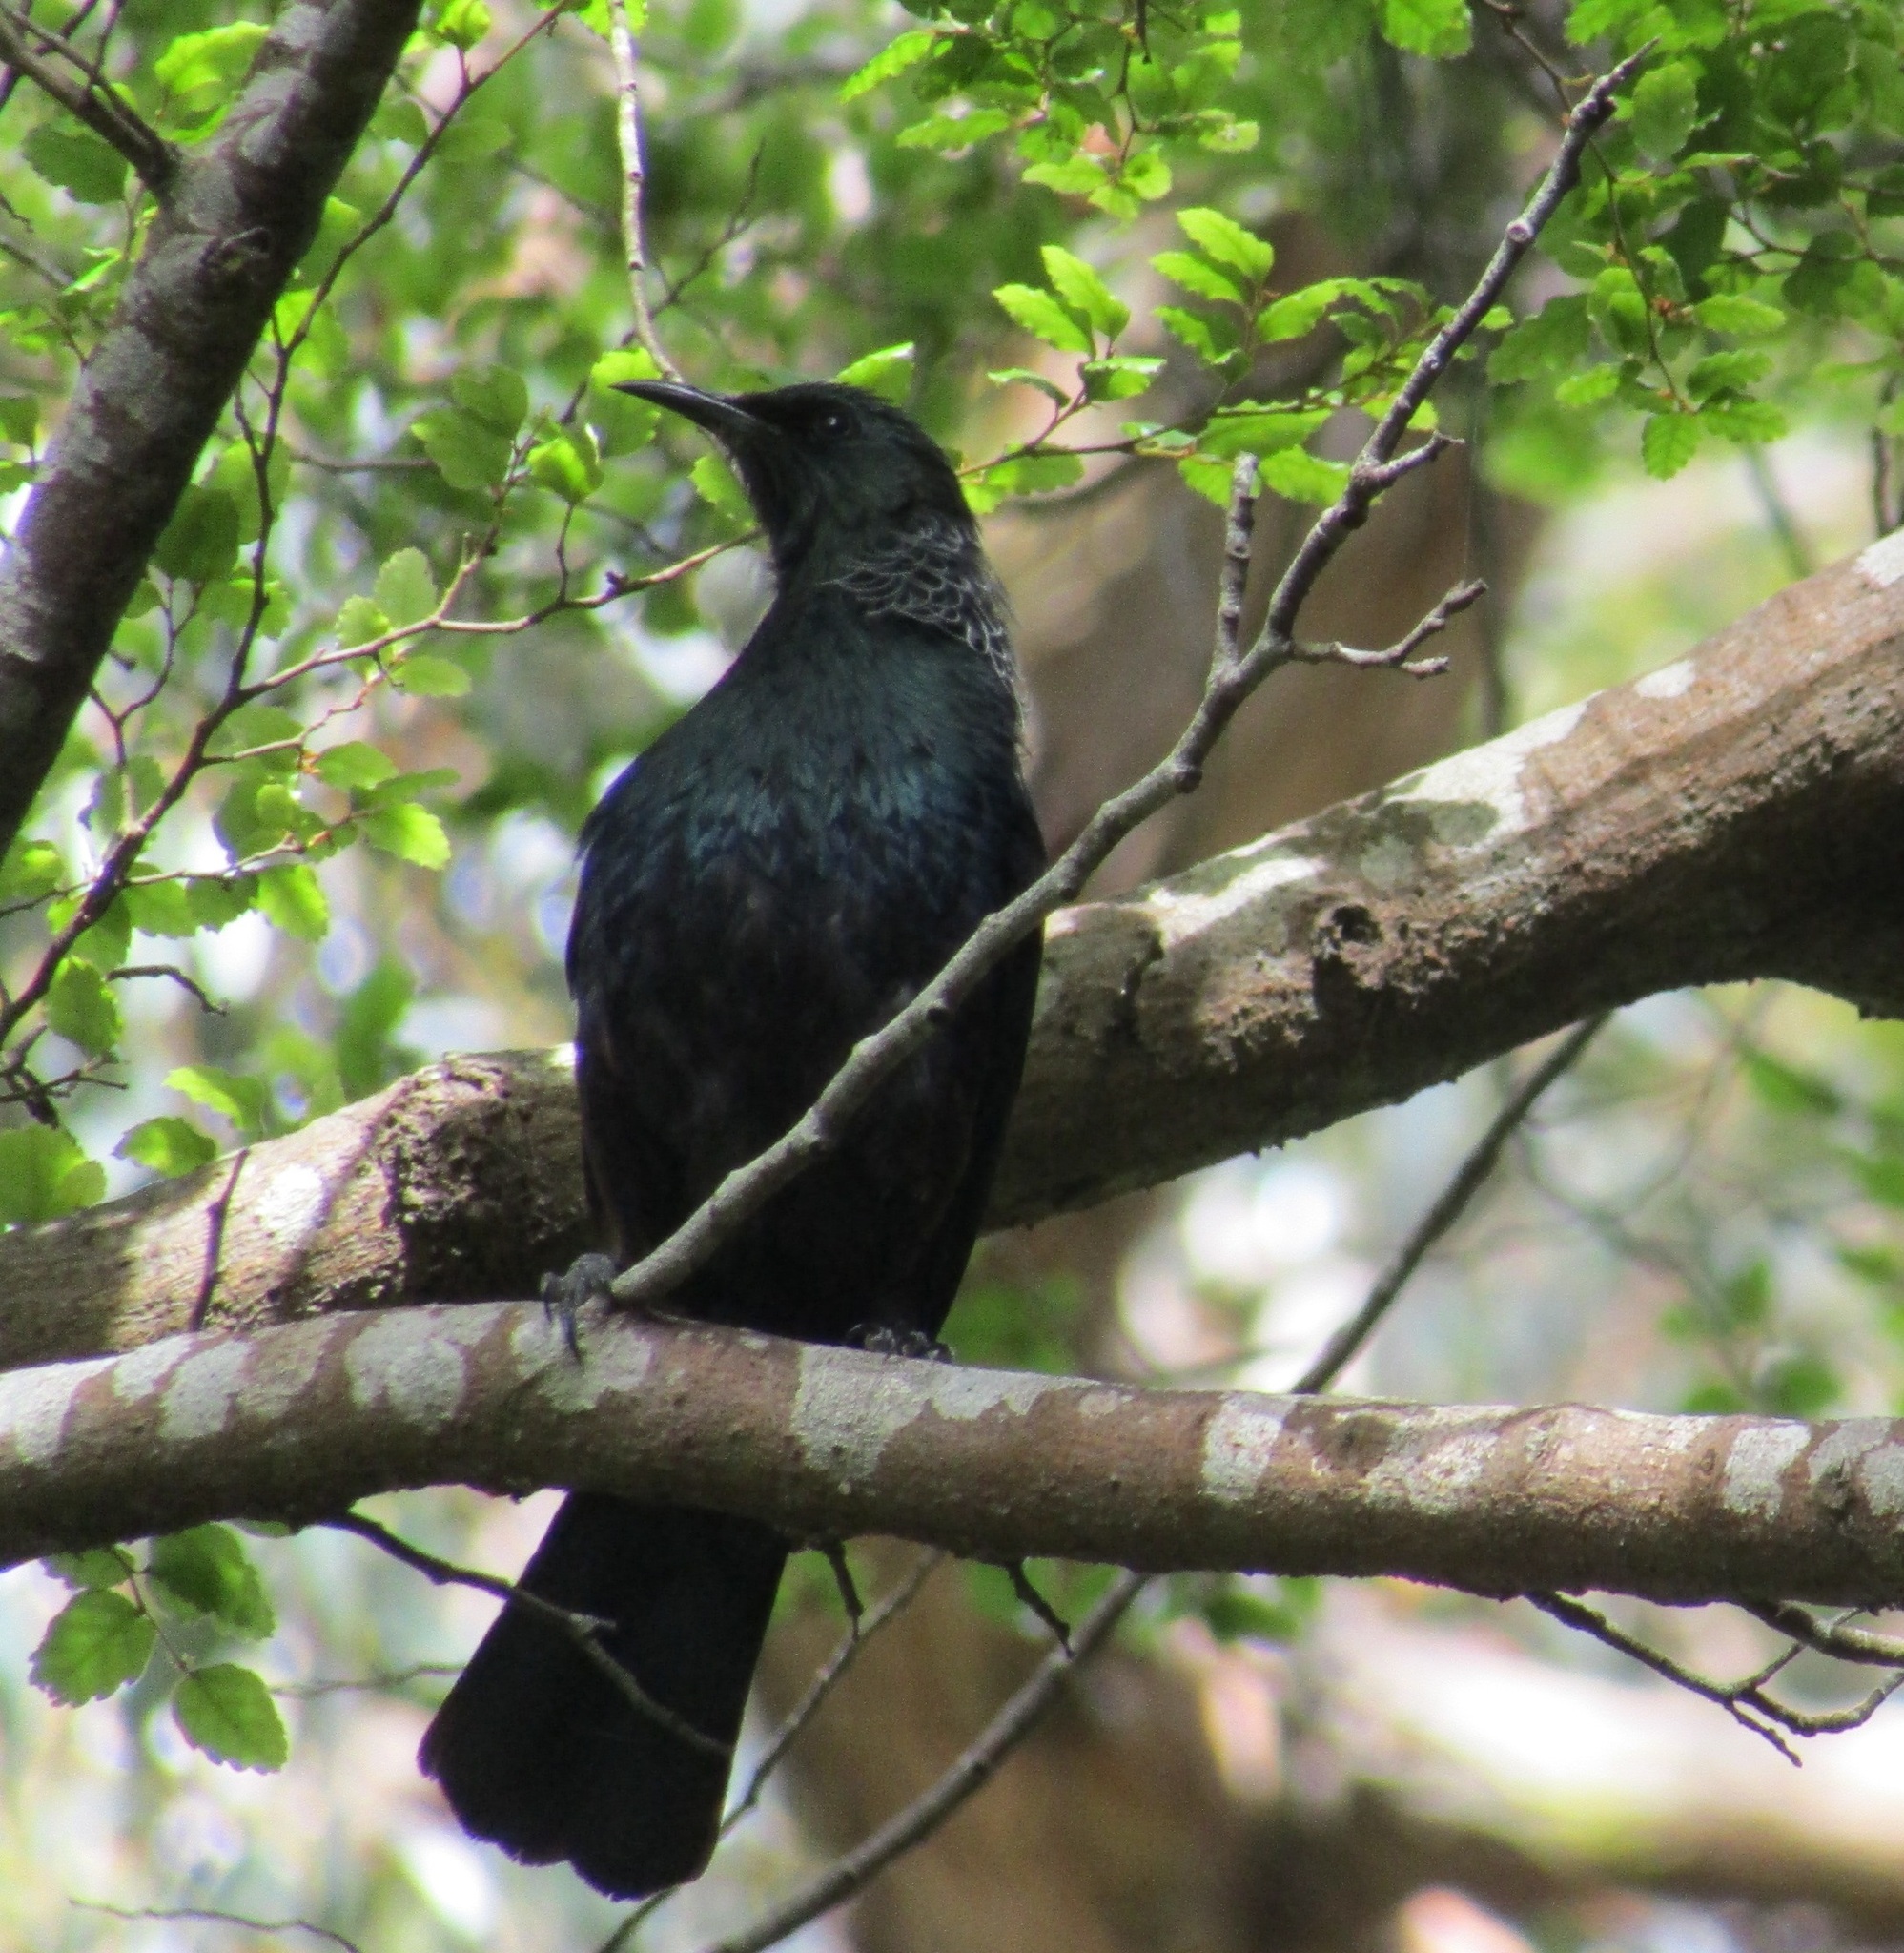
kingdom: Animalia
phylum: Chordata
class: Aves
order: Passeriformes
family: Meliphagidae
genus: Prosthemadera
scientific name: Prosthemadera novaeseelandiae
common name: Tui
